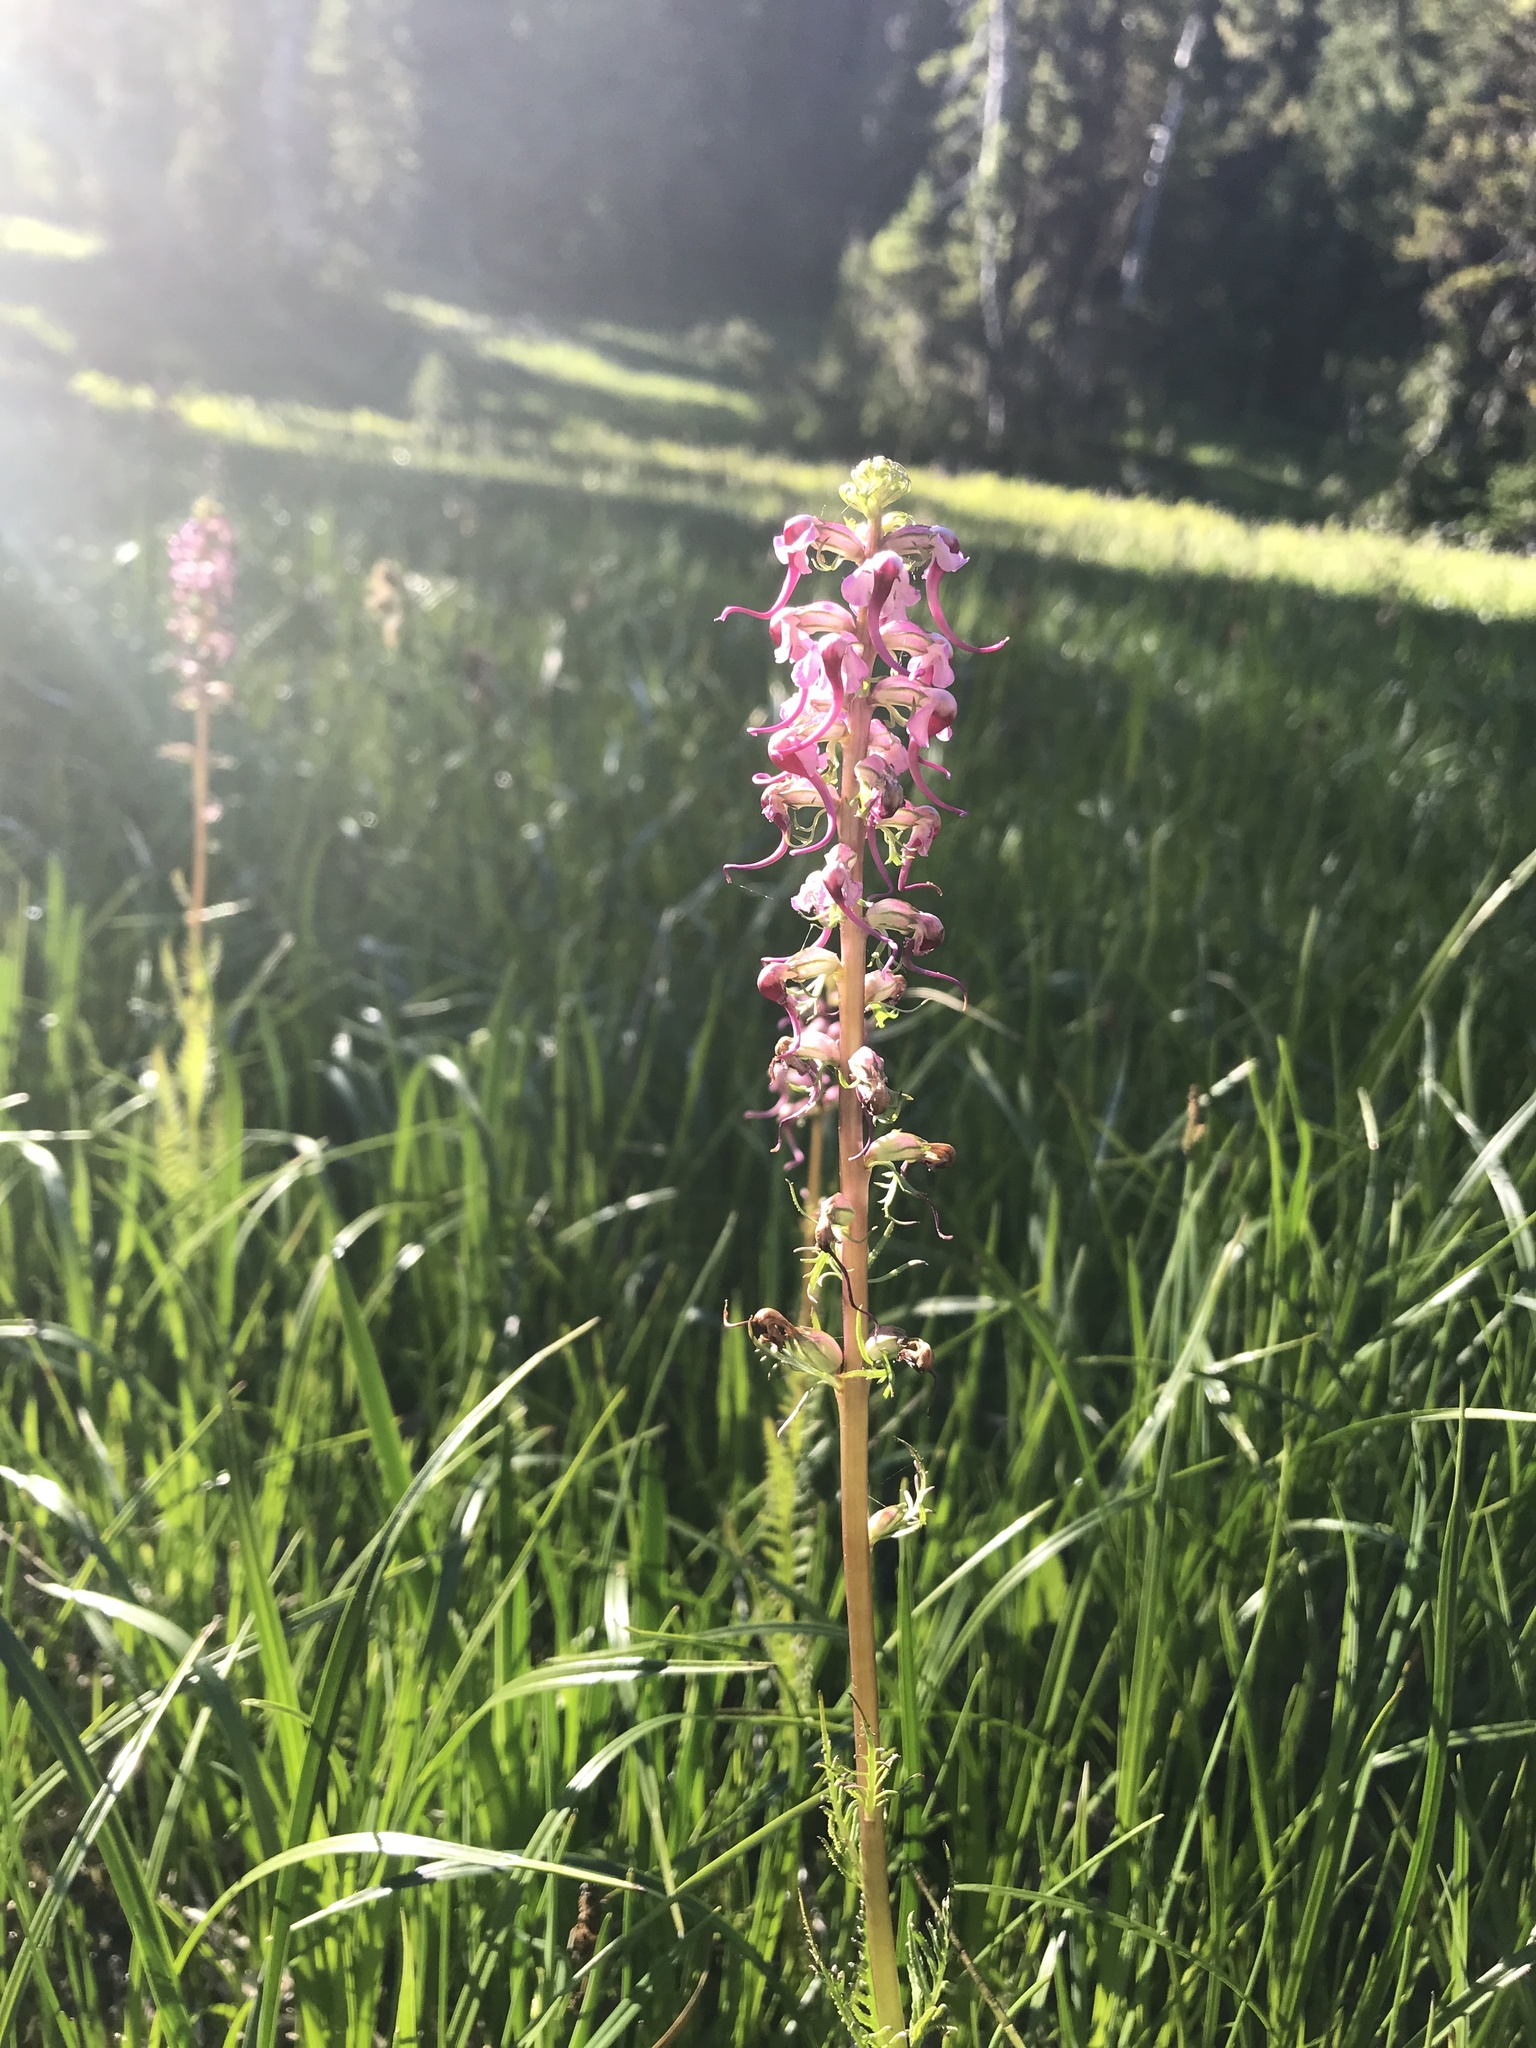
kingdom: Plantae
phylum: Tracheophyta
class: Magnoliopsida
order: Lamiales
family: Orobanchaceae
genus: Pedicularis
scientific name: Pedicularis groenlandica
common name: Elephant's-head
